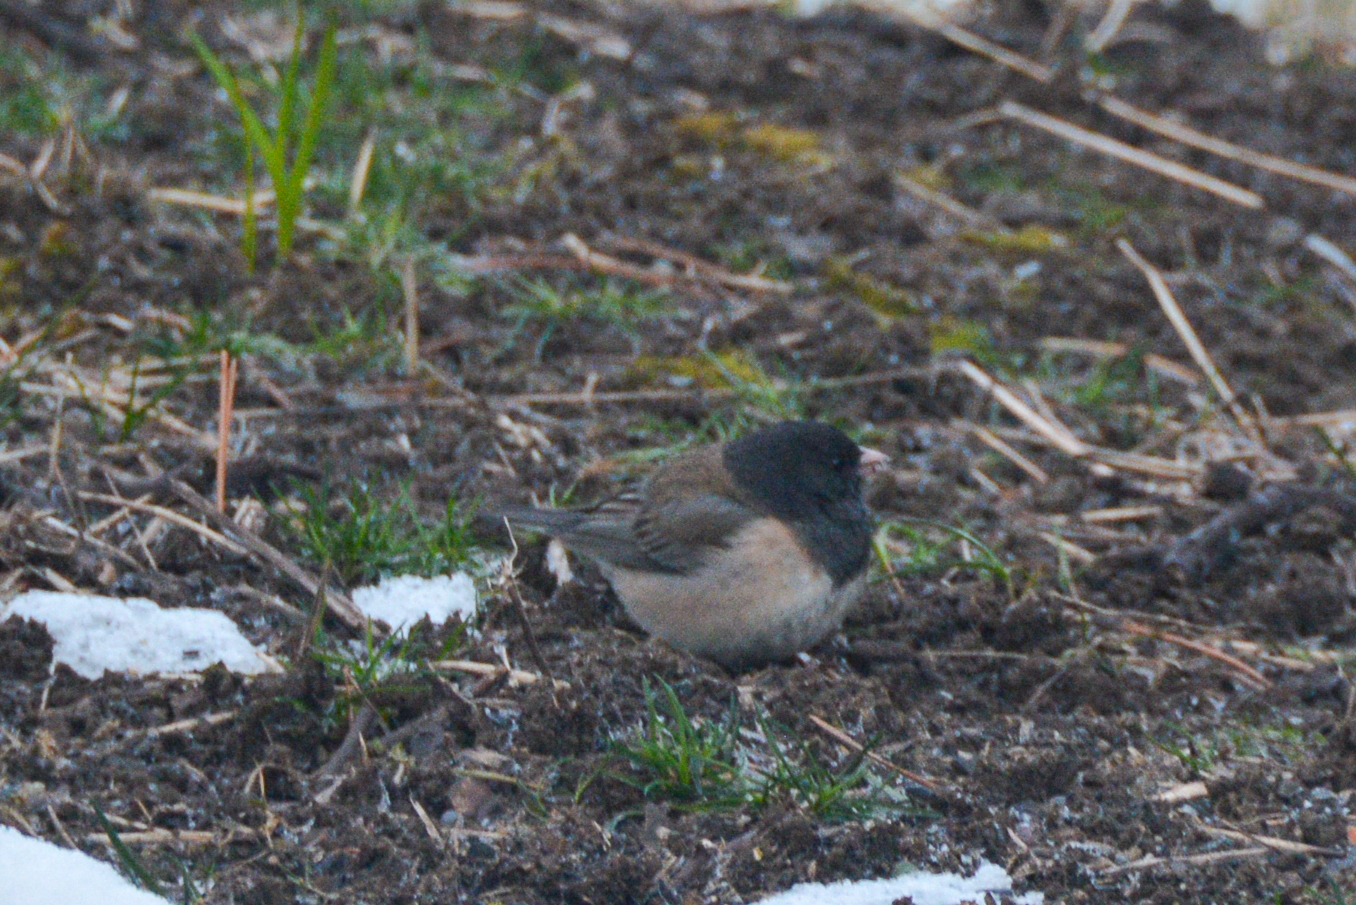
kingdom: Animalia
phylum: Chordata
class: Aves
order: Passeriformes
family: Passerellidae
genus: Junco
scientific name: Junco hyemalis
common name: Dark-eyed junco
